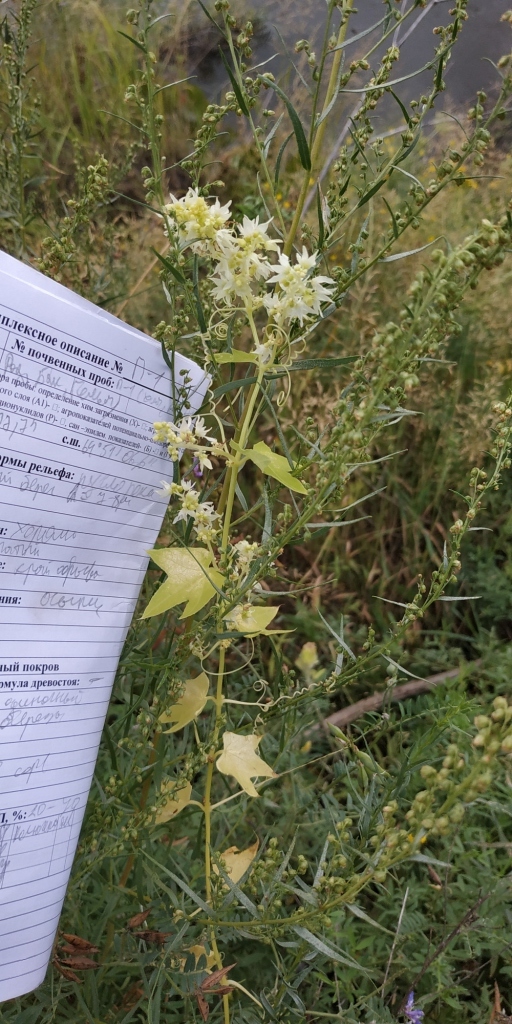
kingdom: Plantae
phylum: Tracheophyta
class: Magnoliopsida
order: Cucurbitales
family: Cucurbitaceae
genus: Echinocystis
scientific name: Echinocystis lobata
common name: Wild cucumber
